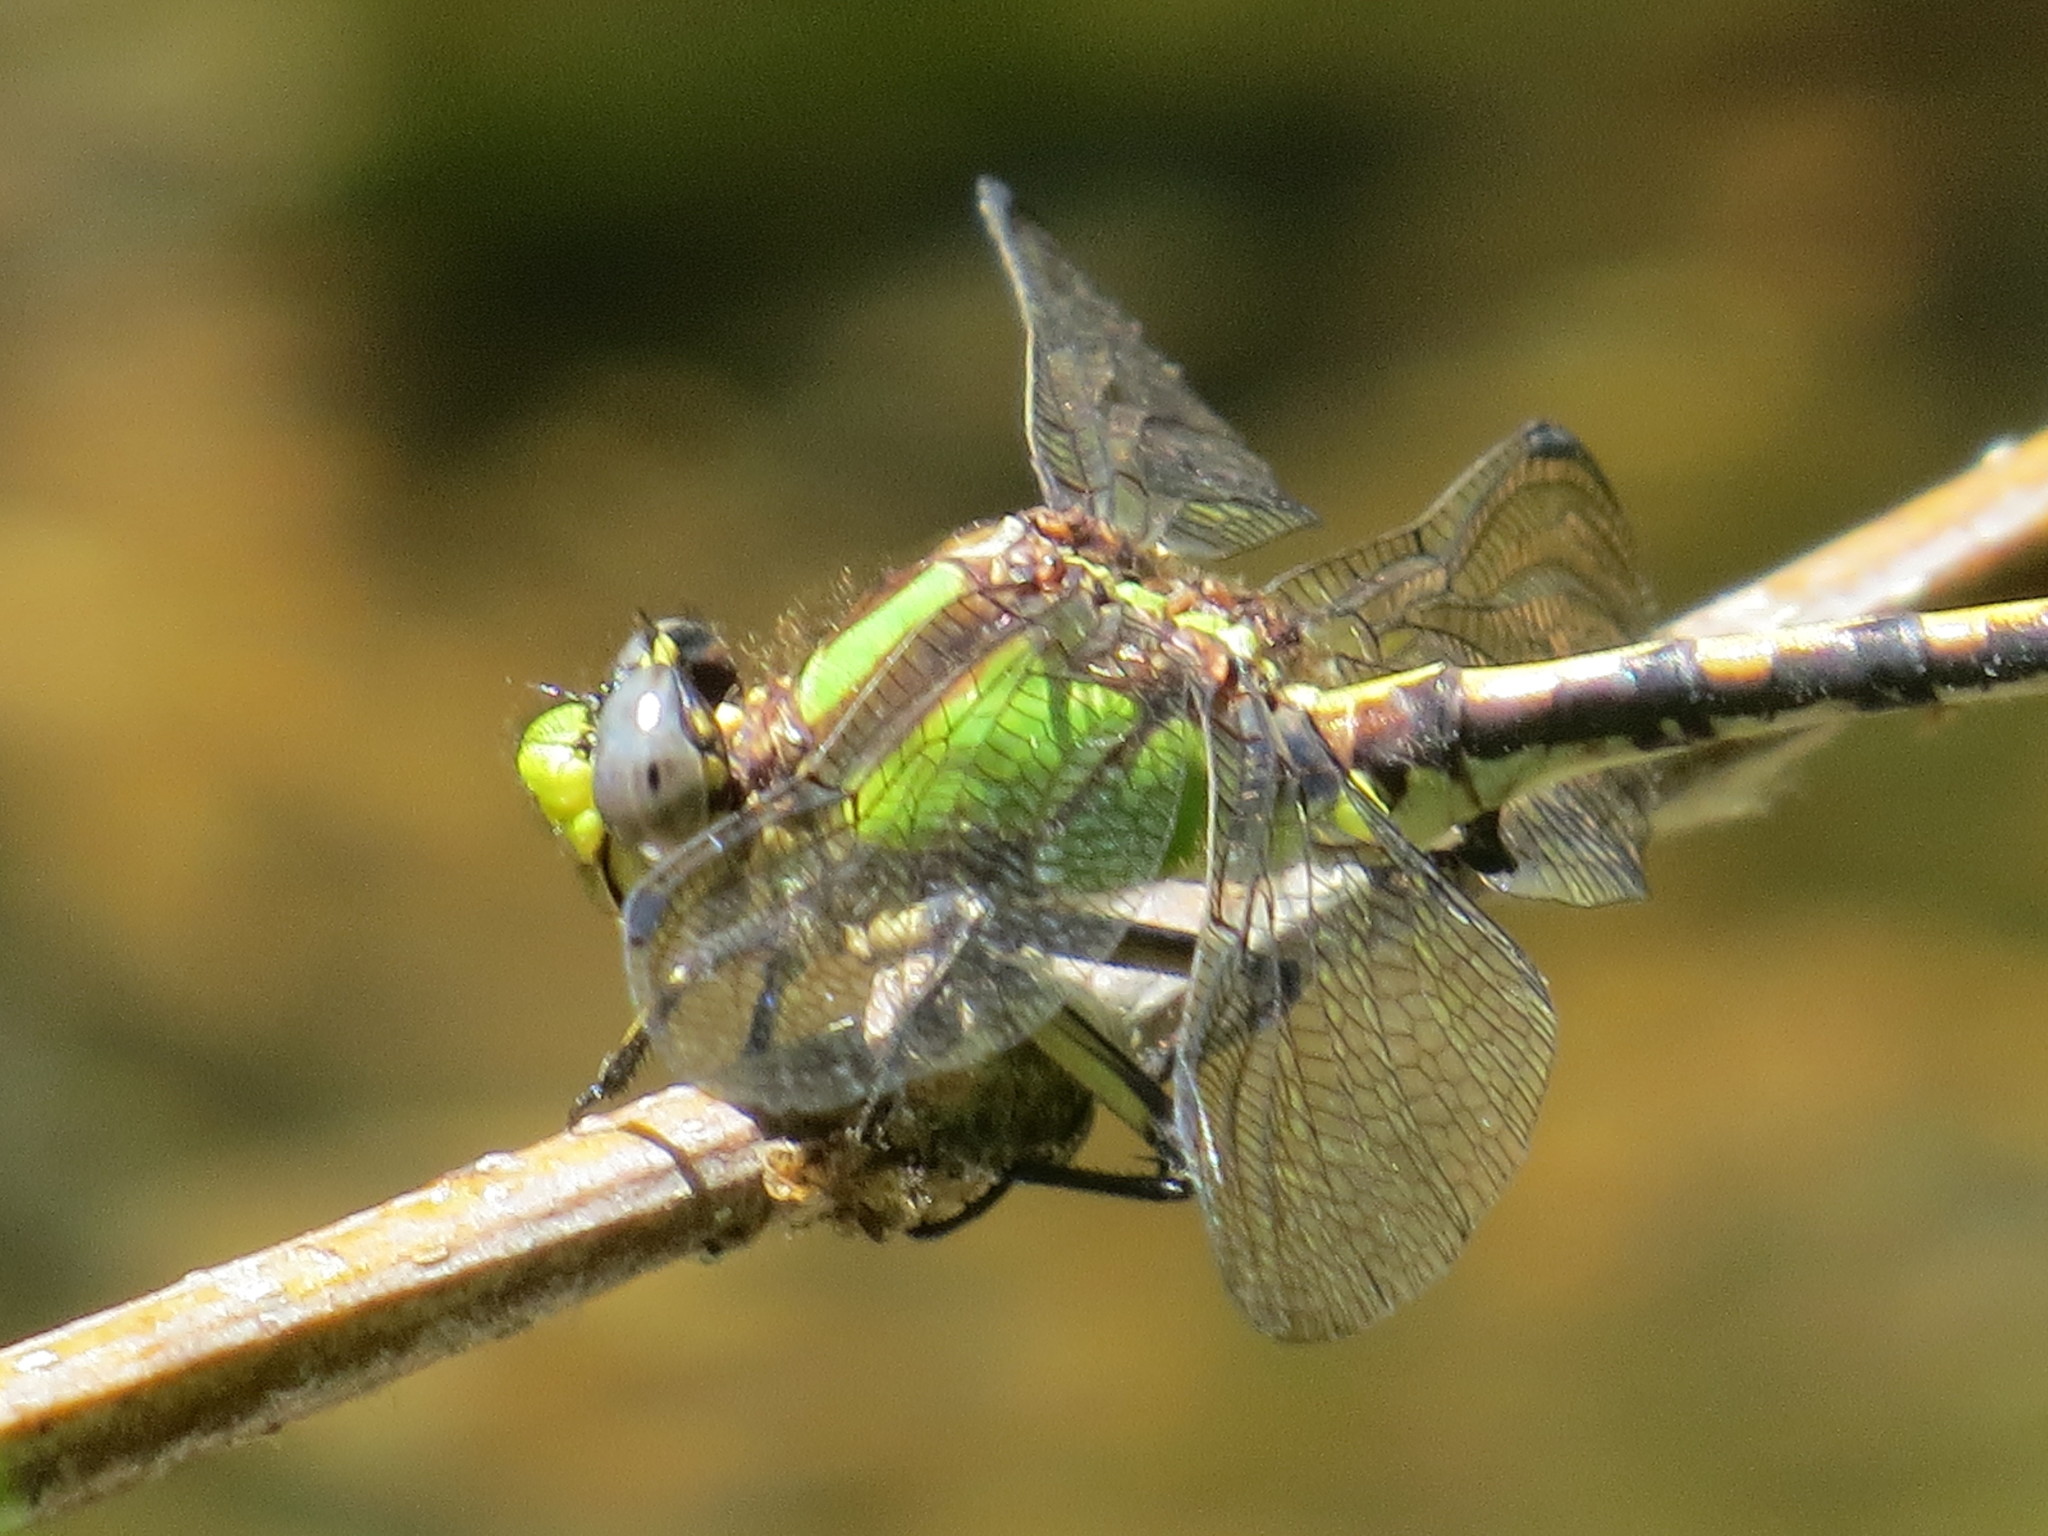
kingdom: Animalia
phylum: Arthropoda
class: Insecta
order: Odonata
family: Gomphidae
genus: Ophiogomphus
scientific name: Ophiogomphus bison
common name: Bison snaketail
